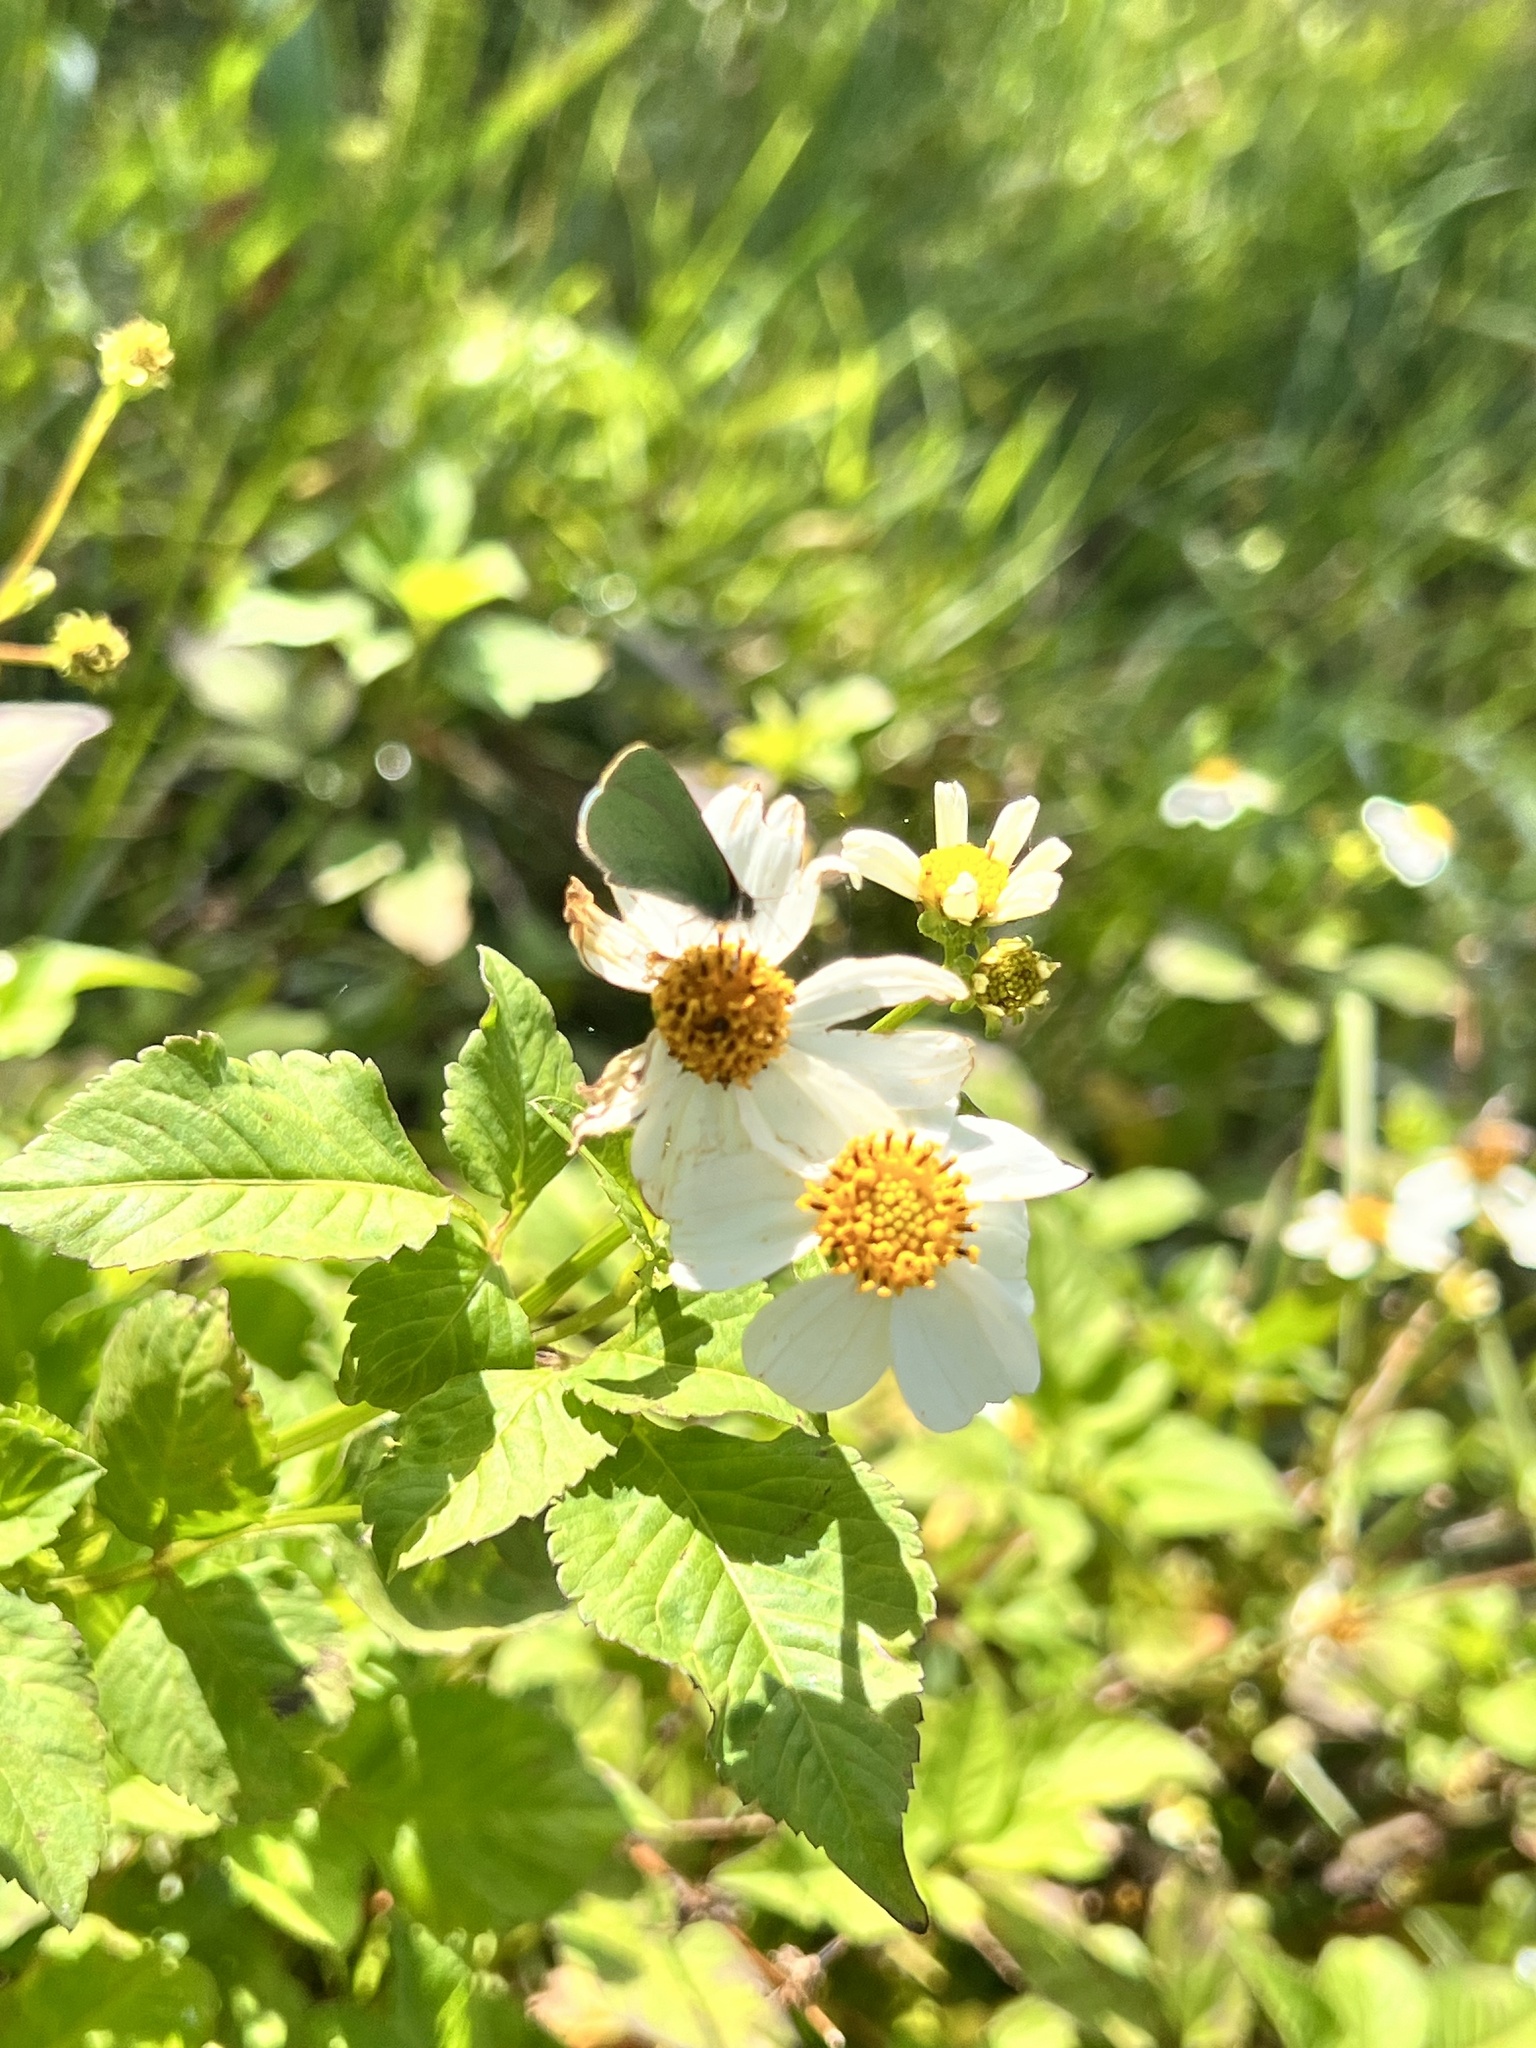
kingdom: Animalia
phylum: Arthropoda
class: Insecta
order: Lepidoptera
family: Lycaenidae
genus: Udara
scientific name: Udara blackburni
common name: Blackburn's blue
